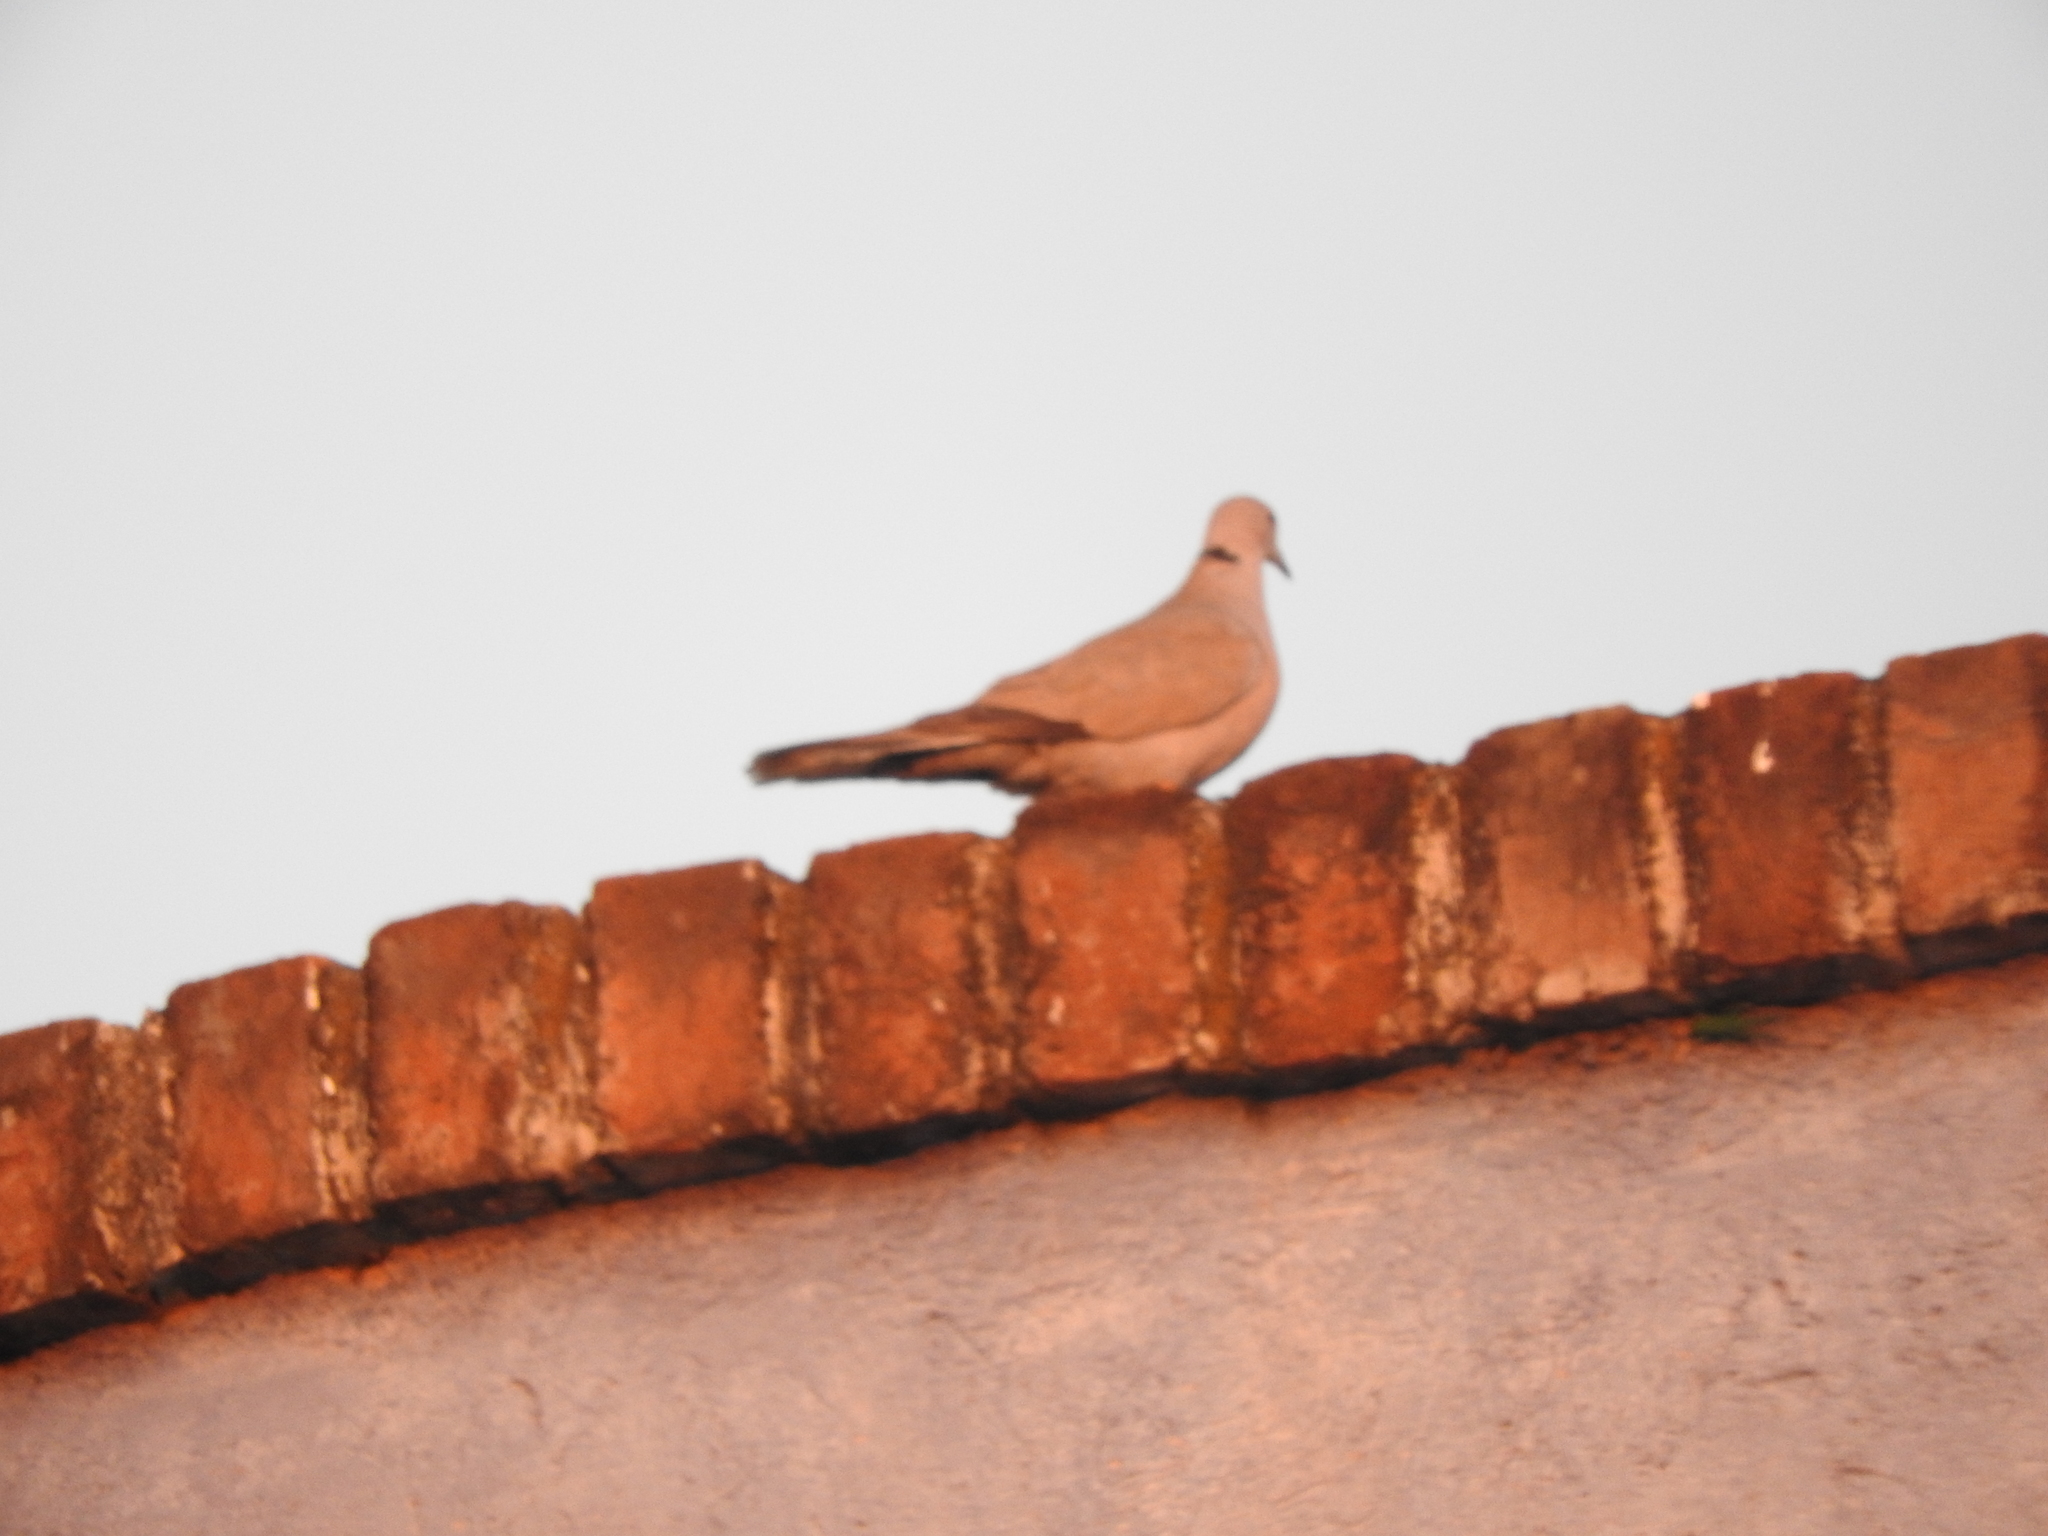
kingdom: Animalia
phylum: Chordata
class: Aves
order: Columbiformes
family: Columbidae
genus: Streptopelia
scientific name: Streptopelia decaocto
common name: Eurasian collared dove
